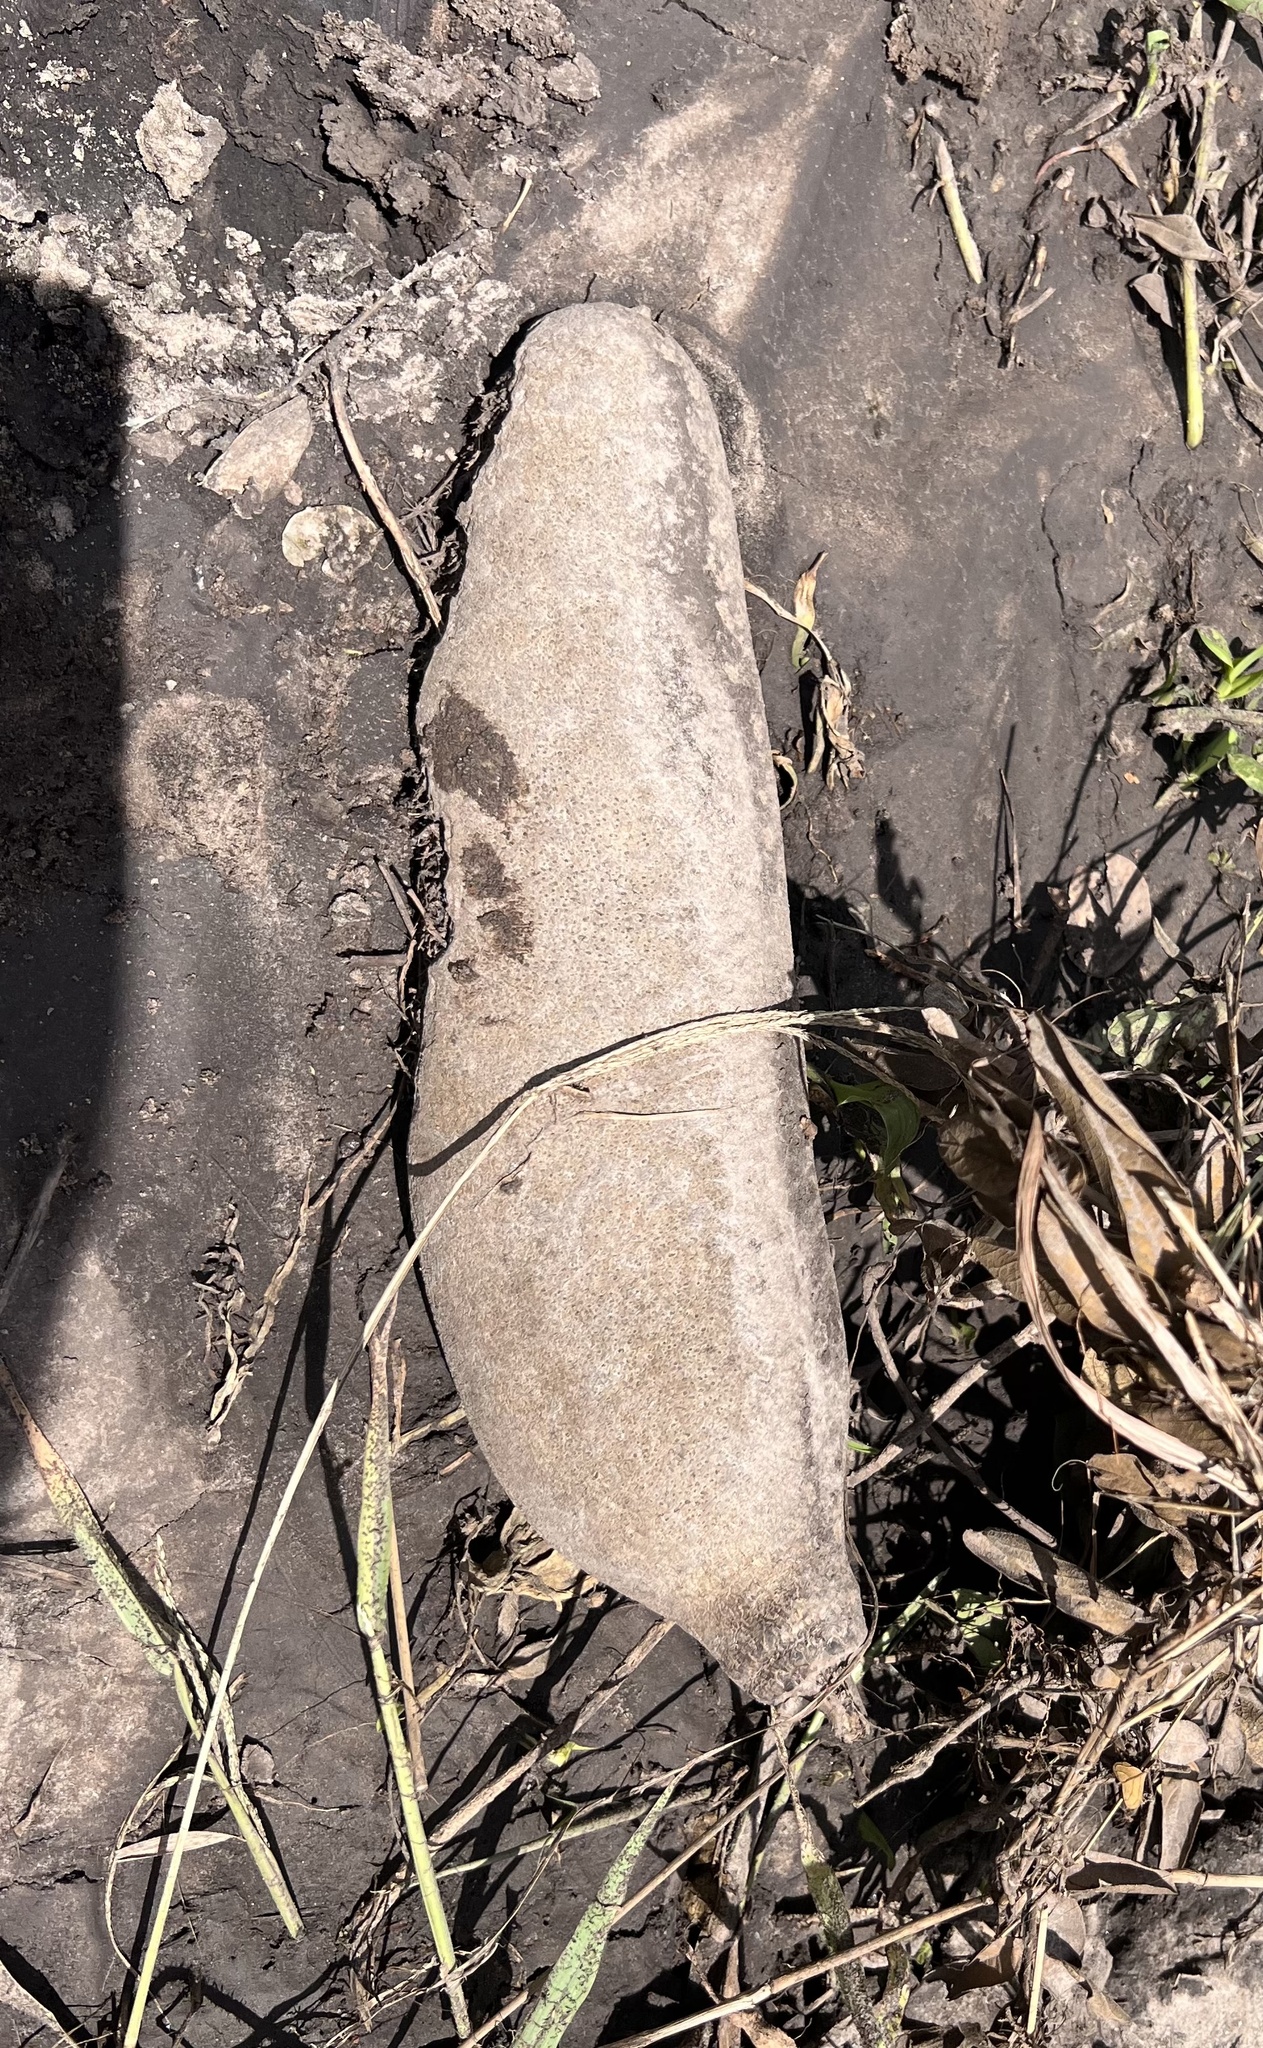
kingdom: Plantae
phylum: Tracheophyta
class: Magnoliopsida
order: Lamiales
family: Bignoniaceae
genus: Kigelia
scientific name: Kigelia africana
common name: Sausage tree
